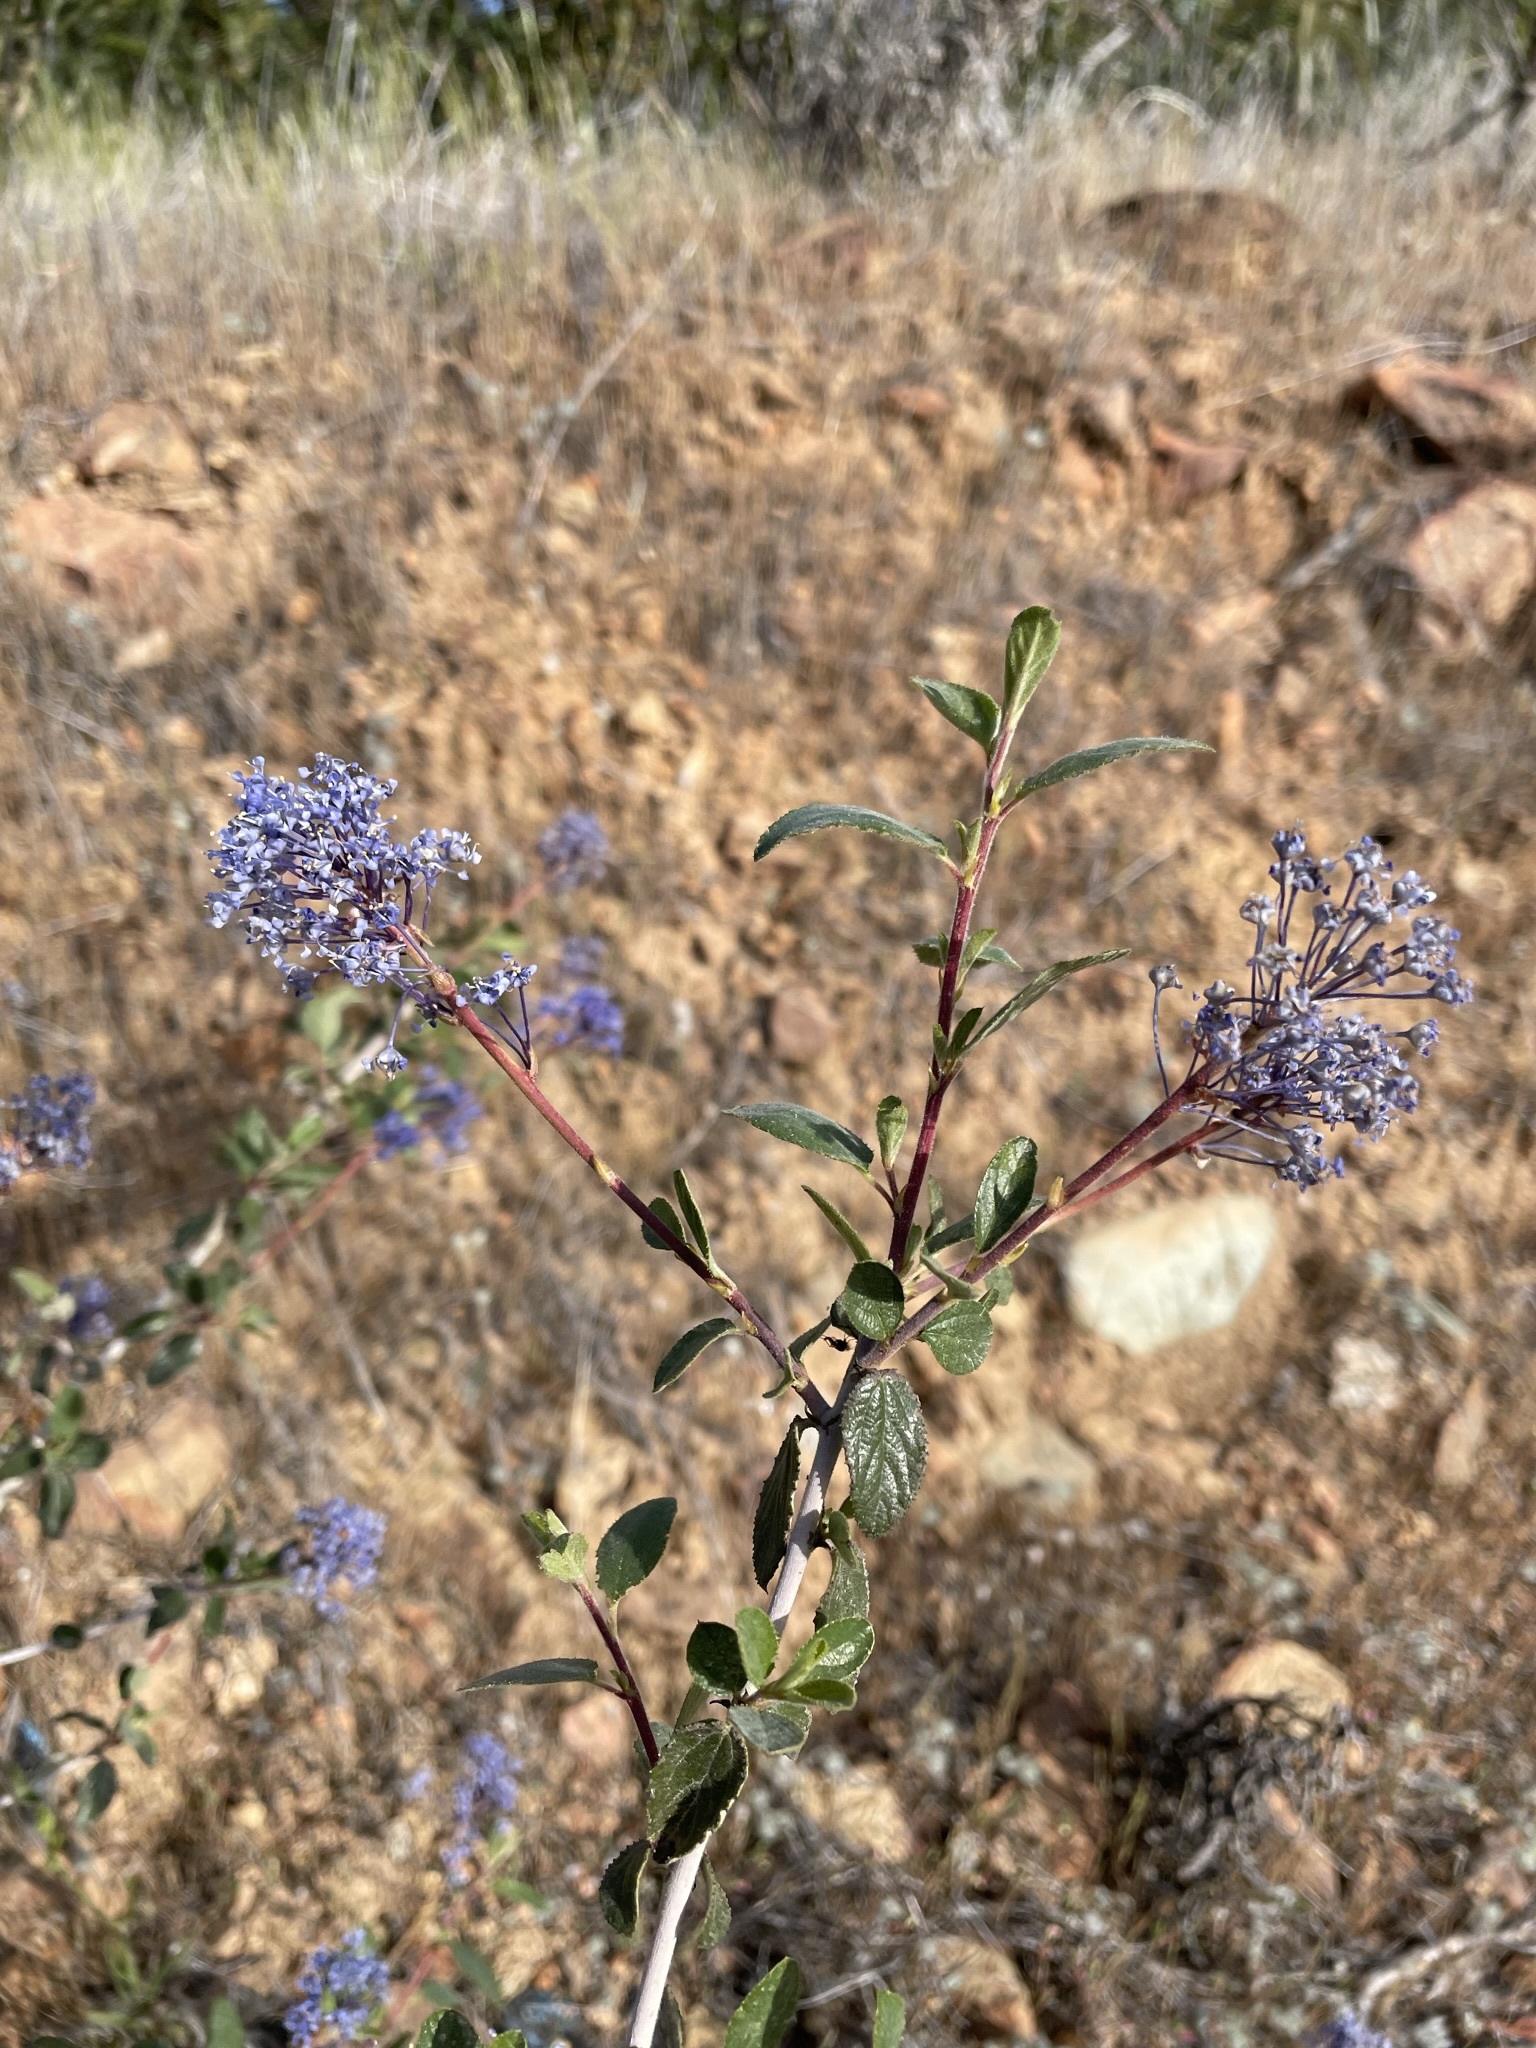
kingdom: Plantae
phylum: Tracheophyta
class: Magnoliopsida
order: Rosales
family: Rhamnaceae
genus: Ceanothus
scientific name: Ceanothus lemmonii
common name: Lemmon's ceanothus
